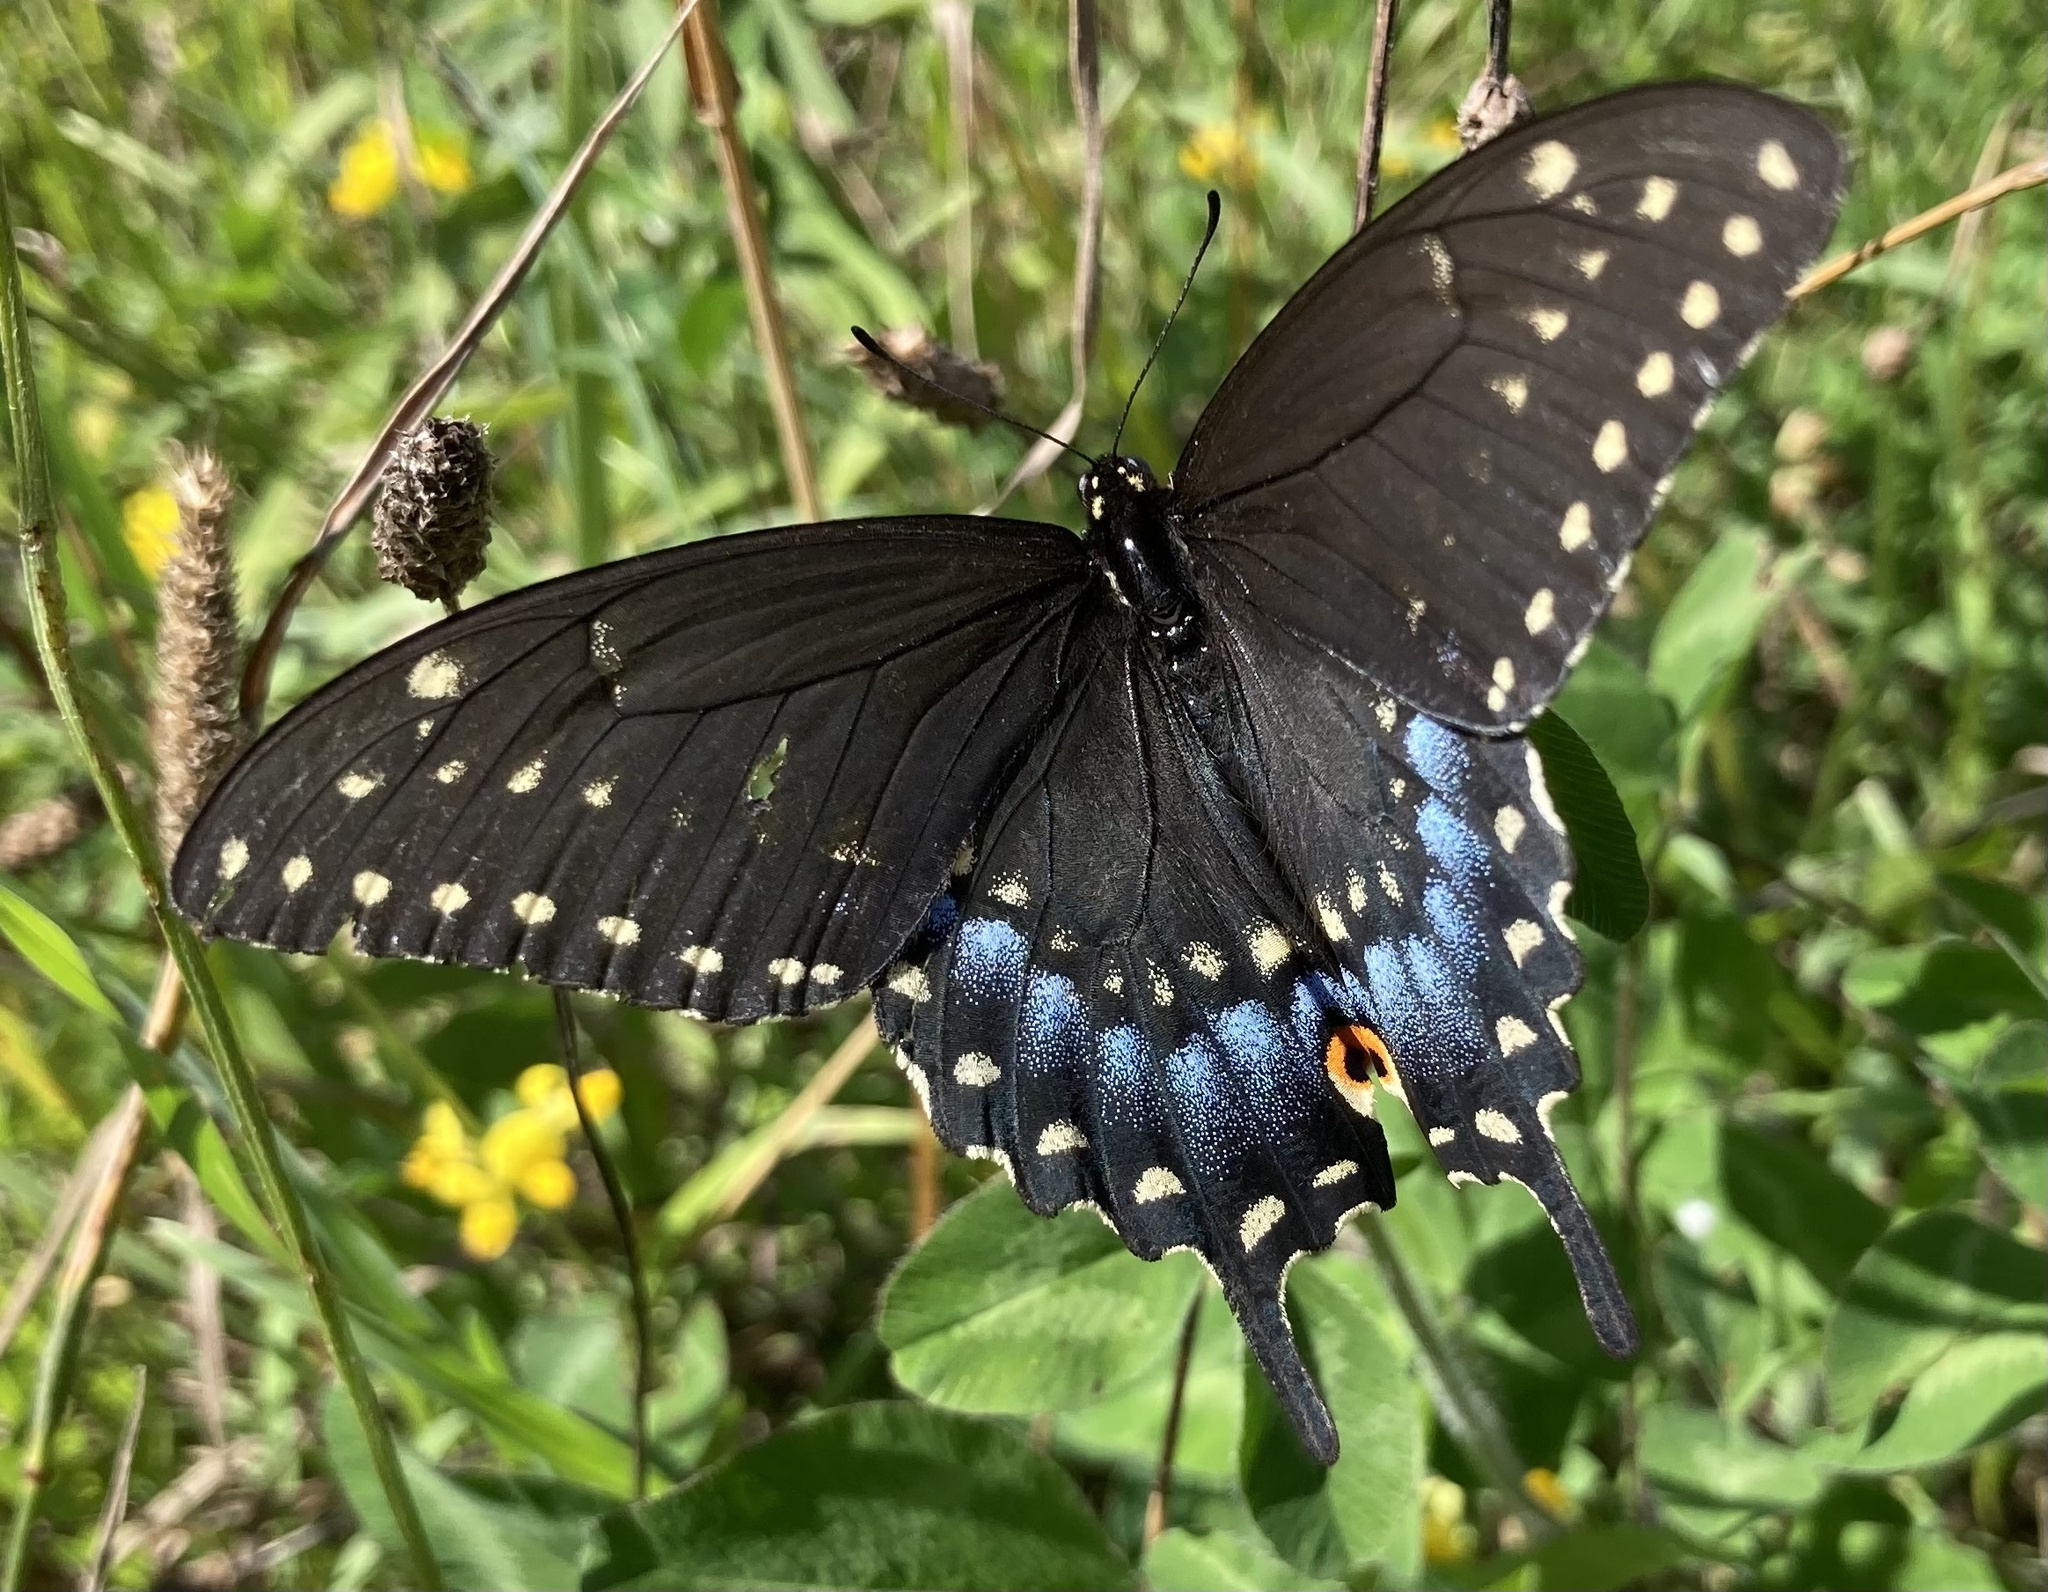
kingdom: Animalia
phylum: Arthropoda
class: Insecta
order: Lepidoptera
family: Papilionidae
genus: Papilio
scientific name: Papilio polyxenes
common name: Black swallowtail
